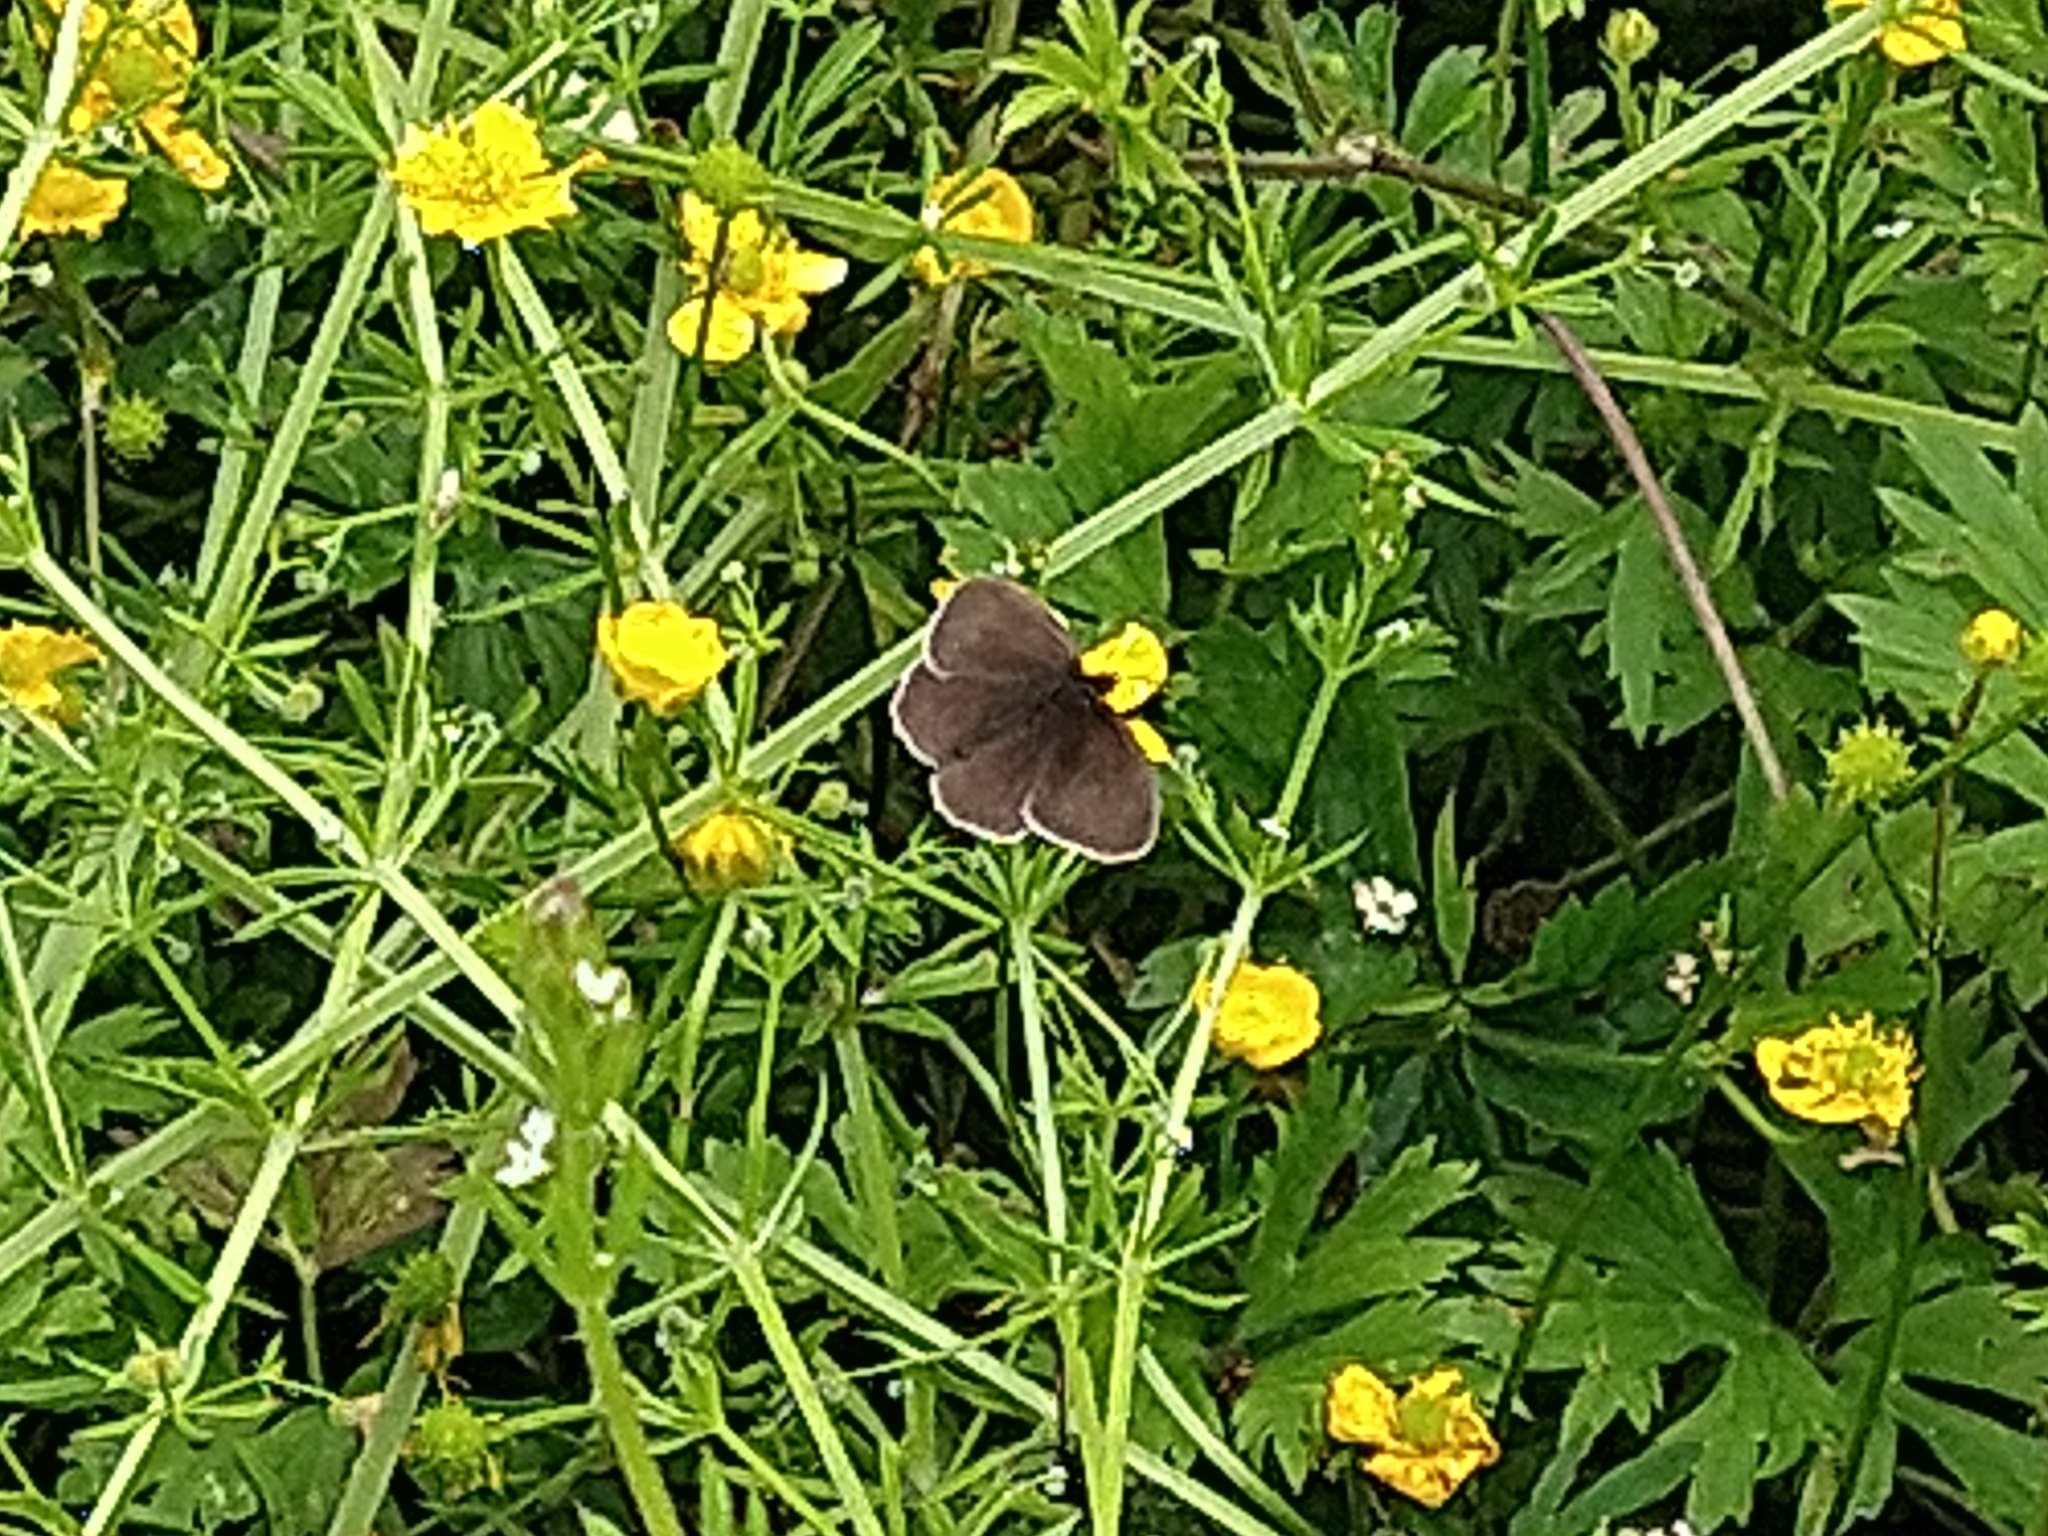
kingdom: Animalia
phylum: Arthropoda
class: Insecta
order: Lepidoptera
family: Nymphalidae
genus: Aphantopus
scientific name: Aphantopus hyperantus
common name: Ringlet
